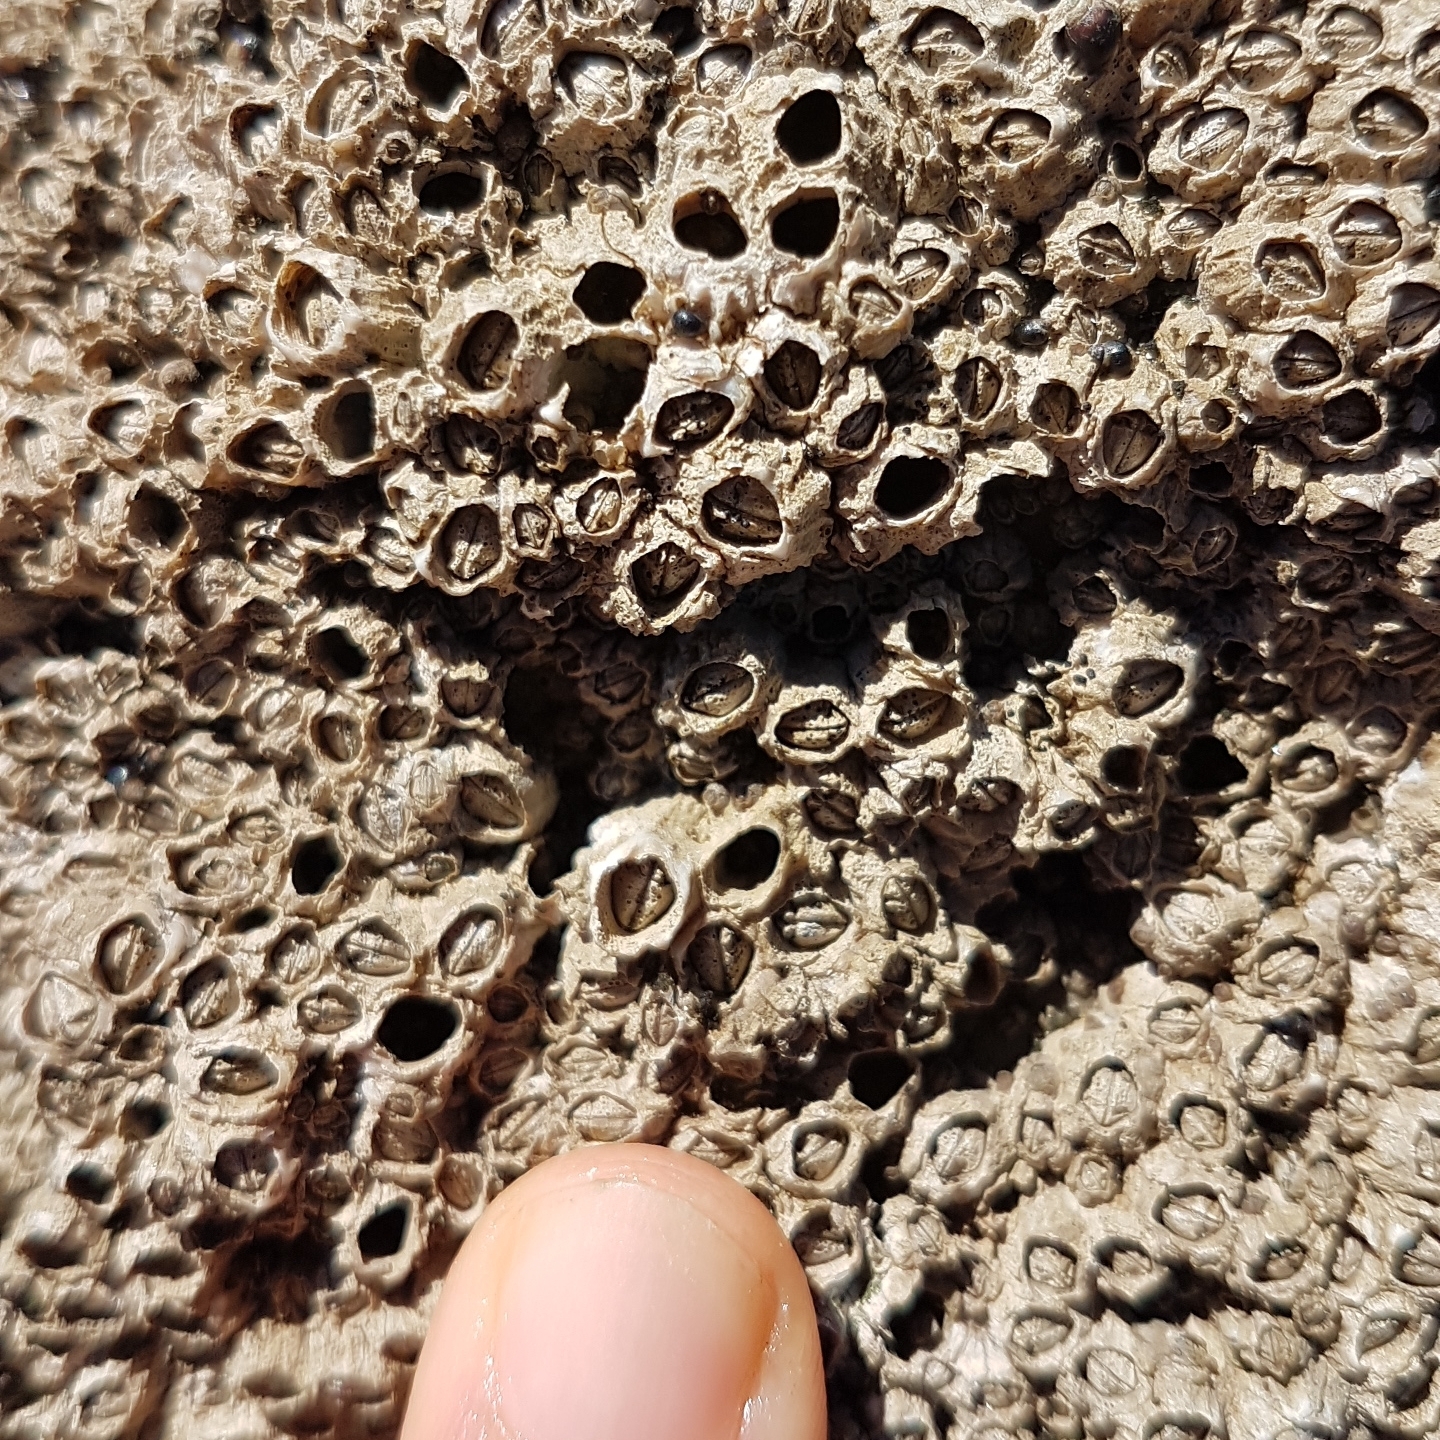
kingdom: Animalia
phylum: Arthropoda
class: Maxillopoda
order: Sessilia
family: Chthamalidae
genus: Chthamalus
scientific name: Chthamalus montagui
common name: Montagu's stellate barnacle
